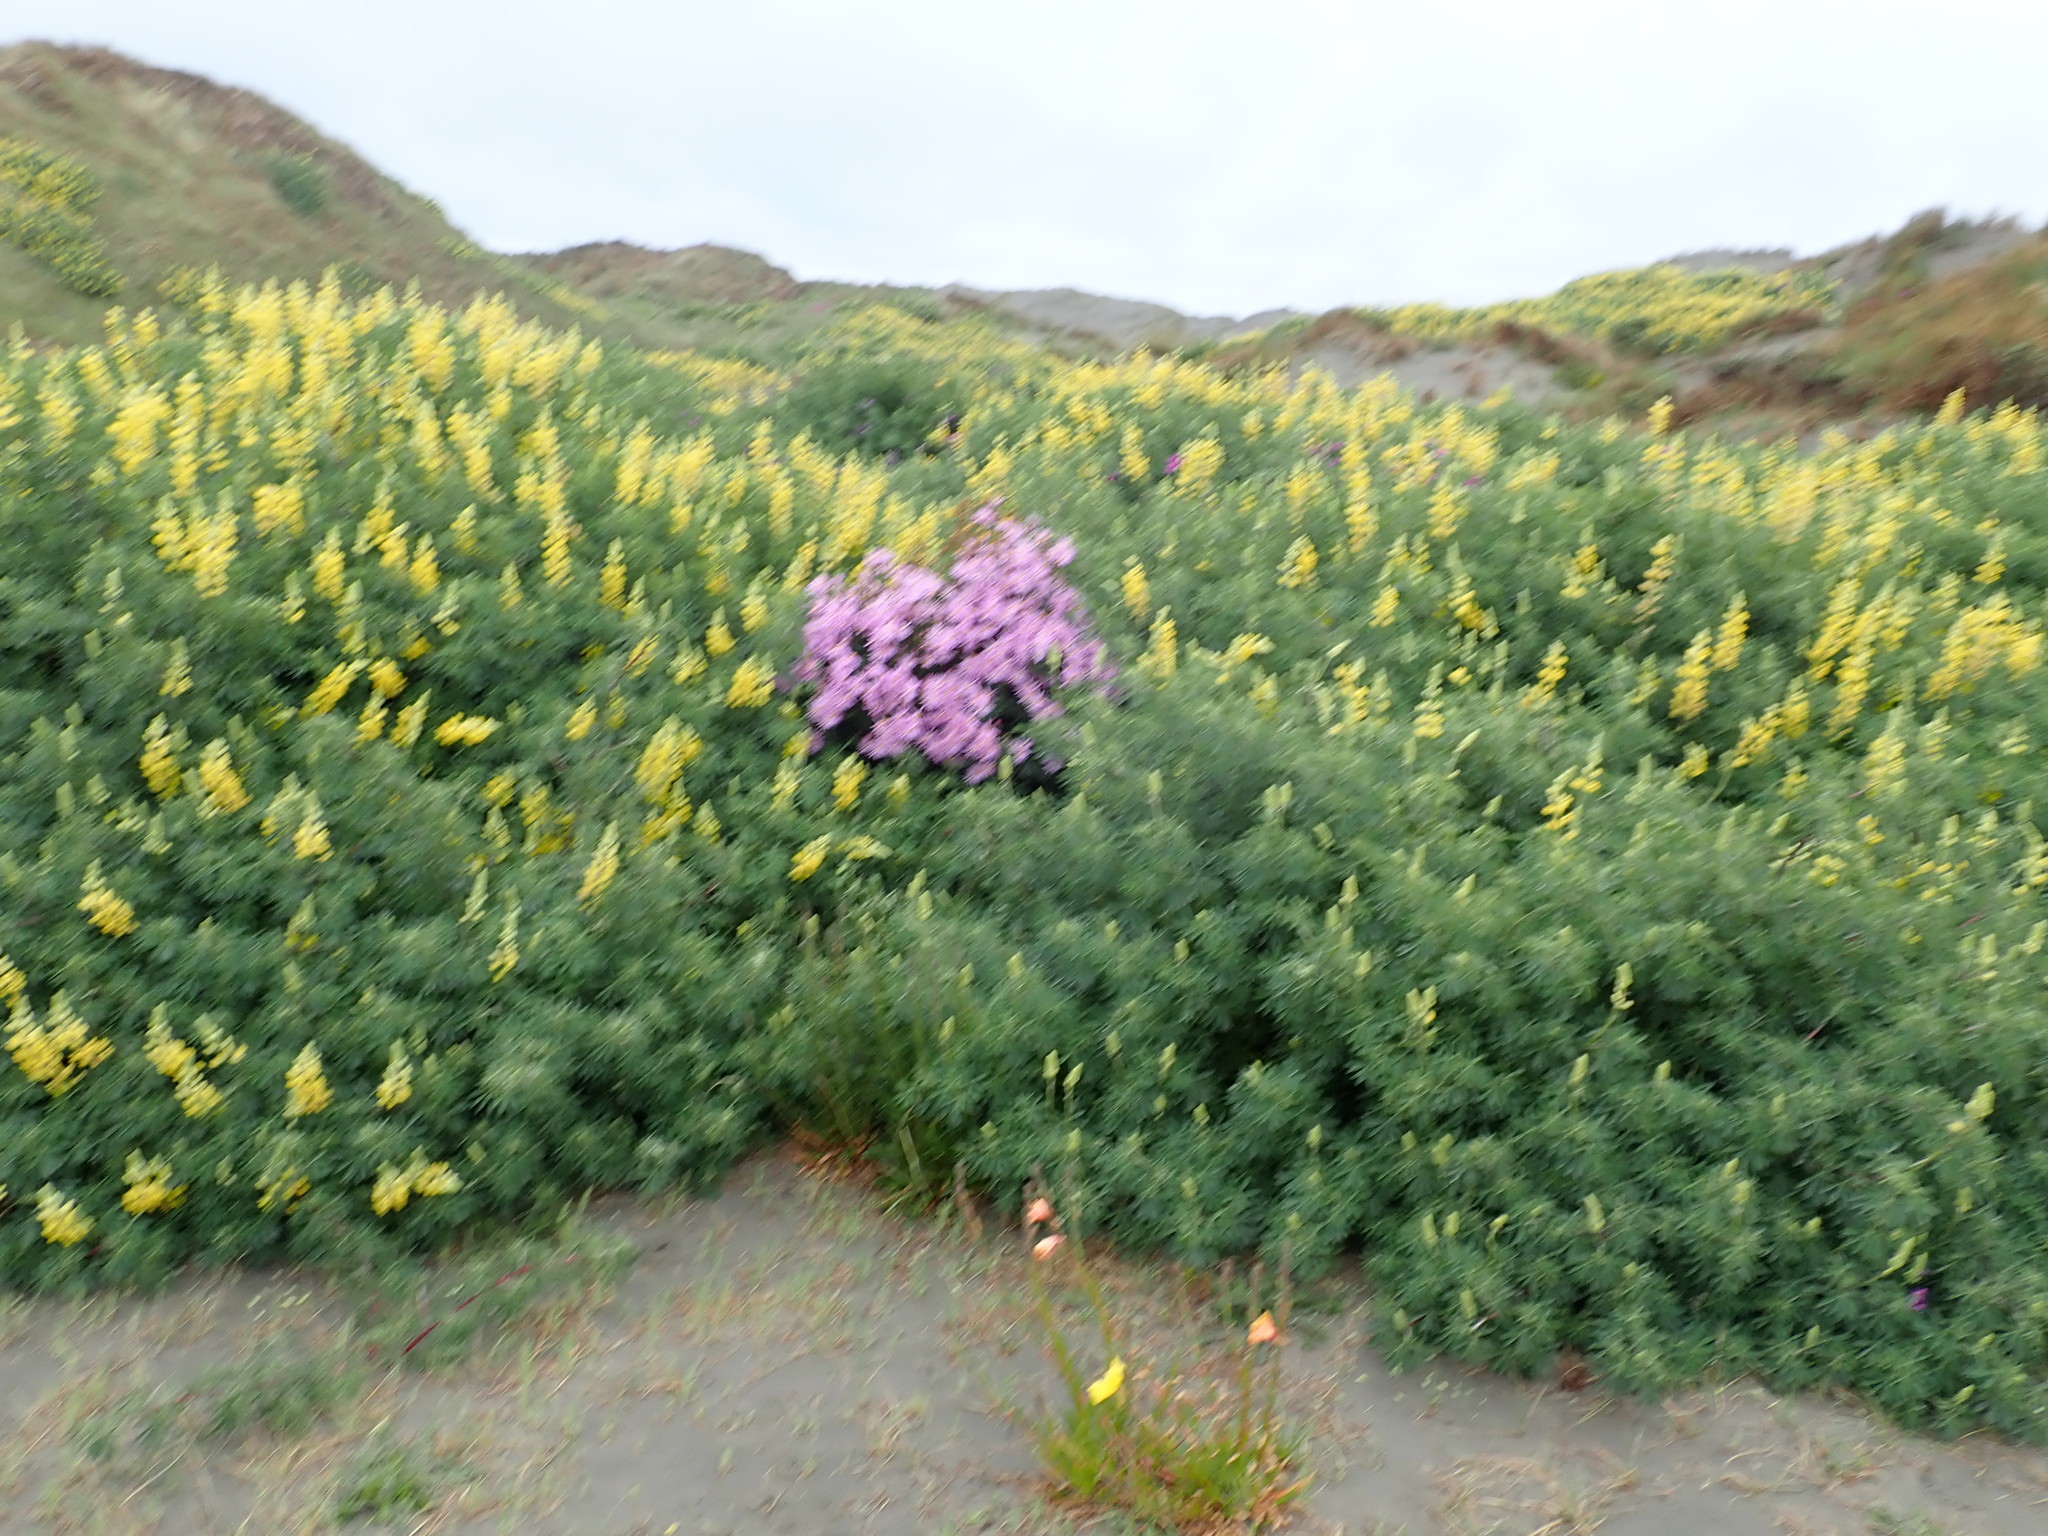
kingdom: Plantae
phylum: Tracheophyta
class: Magnoliopsida
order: Asterales
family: Asteraceae
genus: Senecio
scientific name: Senecio glastifolius
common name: Woad-leaved ragwort
